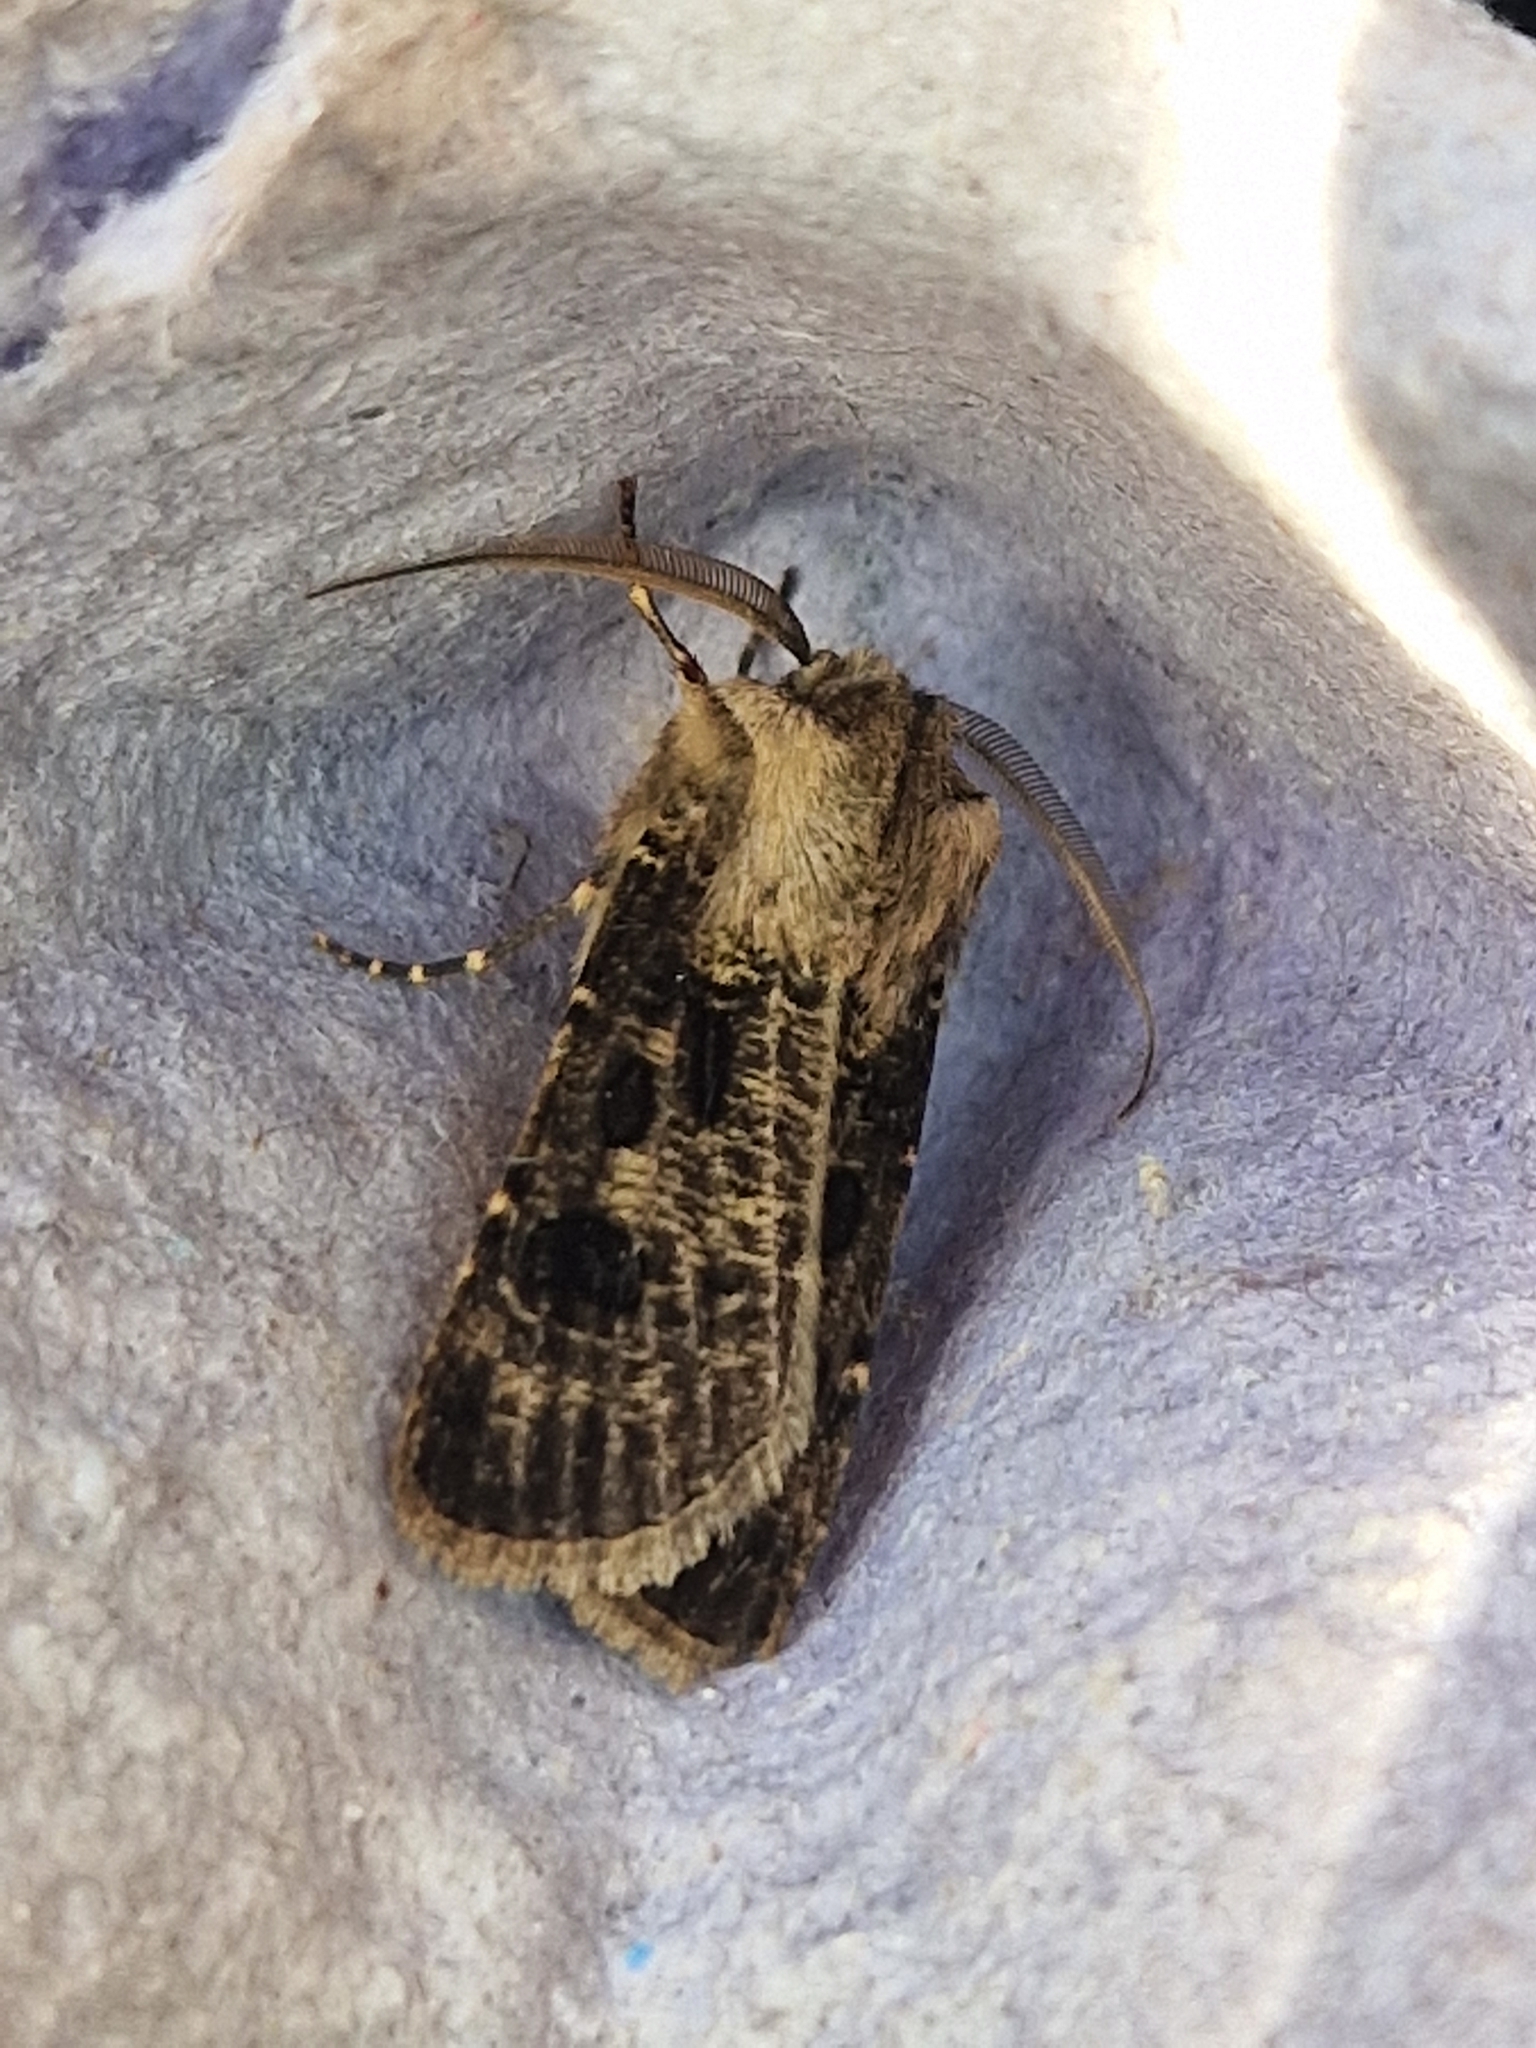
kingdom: Animalia
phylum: Arthropoda
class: Insecta
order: Lepidoptera
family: Noctuidae
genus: Agrotis
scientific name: Agrotis clavis
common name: Heart and club
